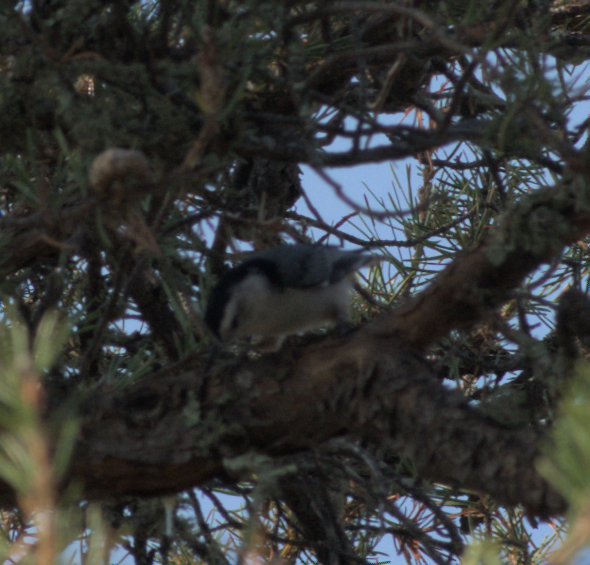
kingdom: Animalia
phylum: Chordata
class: Aves
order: Passeriformes
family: Sittidae
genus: Sitta
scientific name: Sitta carolinensis
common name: White-breasted nuthatch
